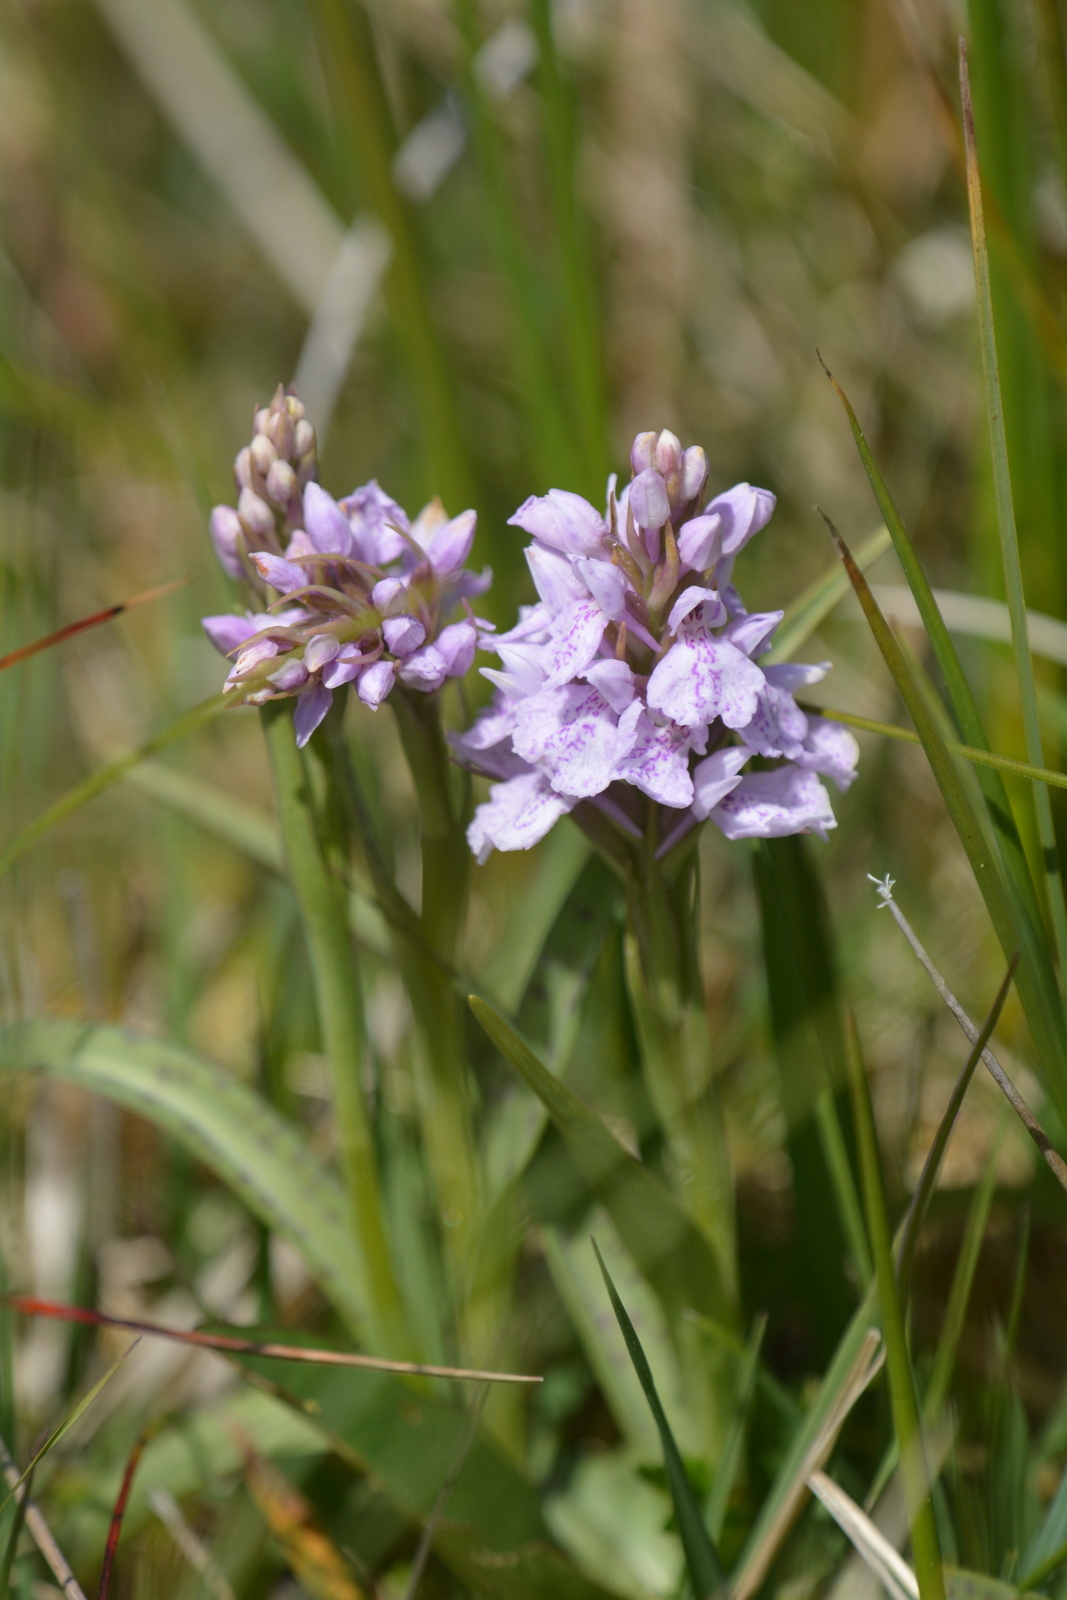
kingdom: Plantae
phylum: Tracheophyta
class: Liliopsida
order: Asparagales
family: Orchidaceae
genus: Dactylorhiza
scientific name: Dactylorhiza maculata
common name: Heath spotted-orchid
